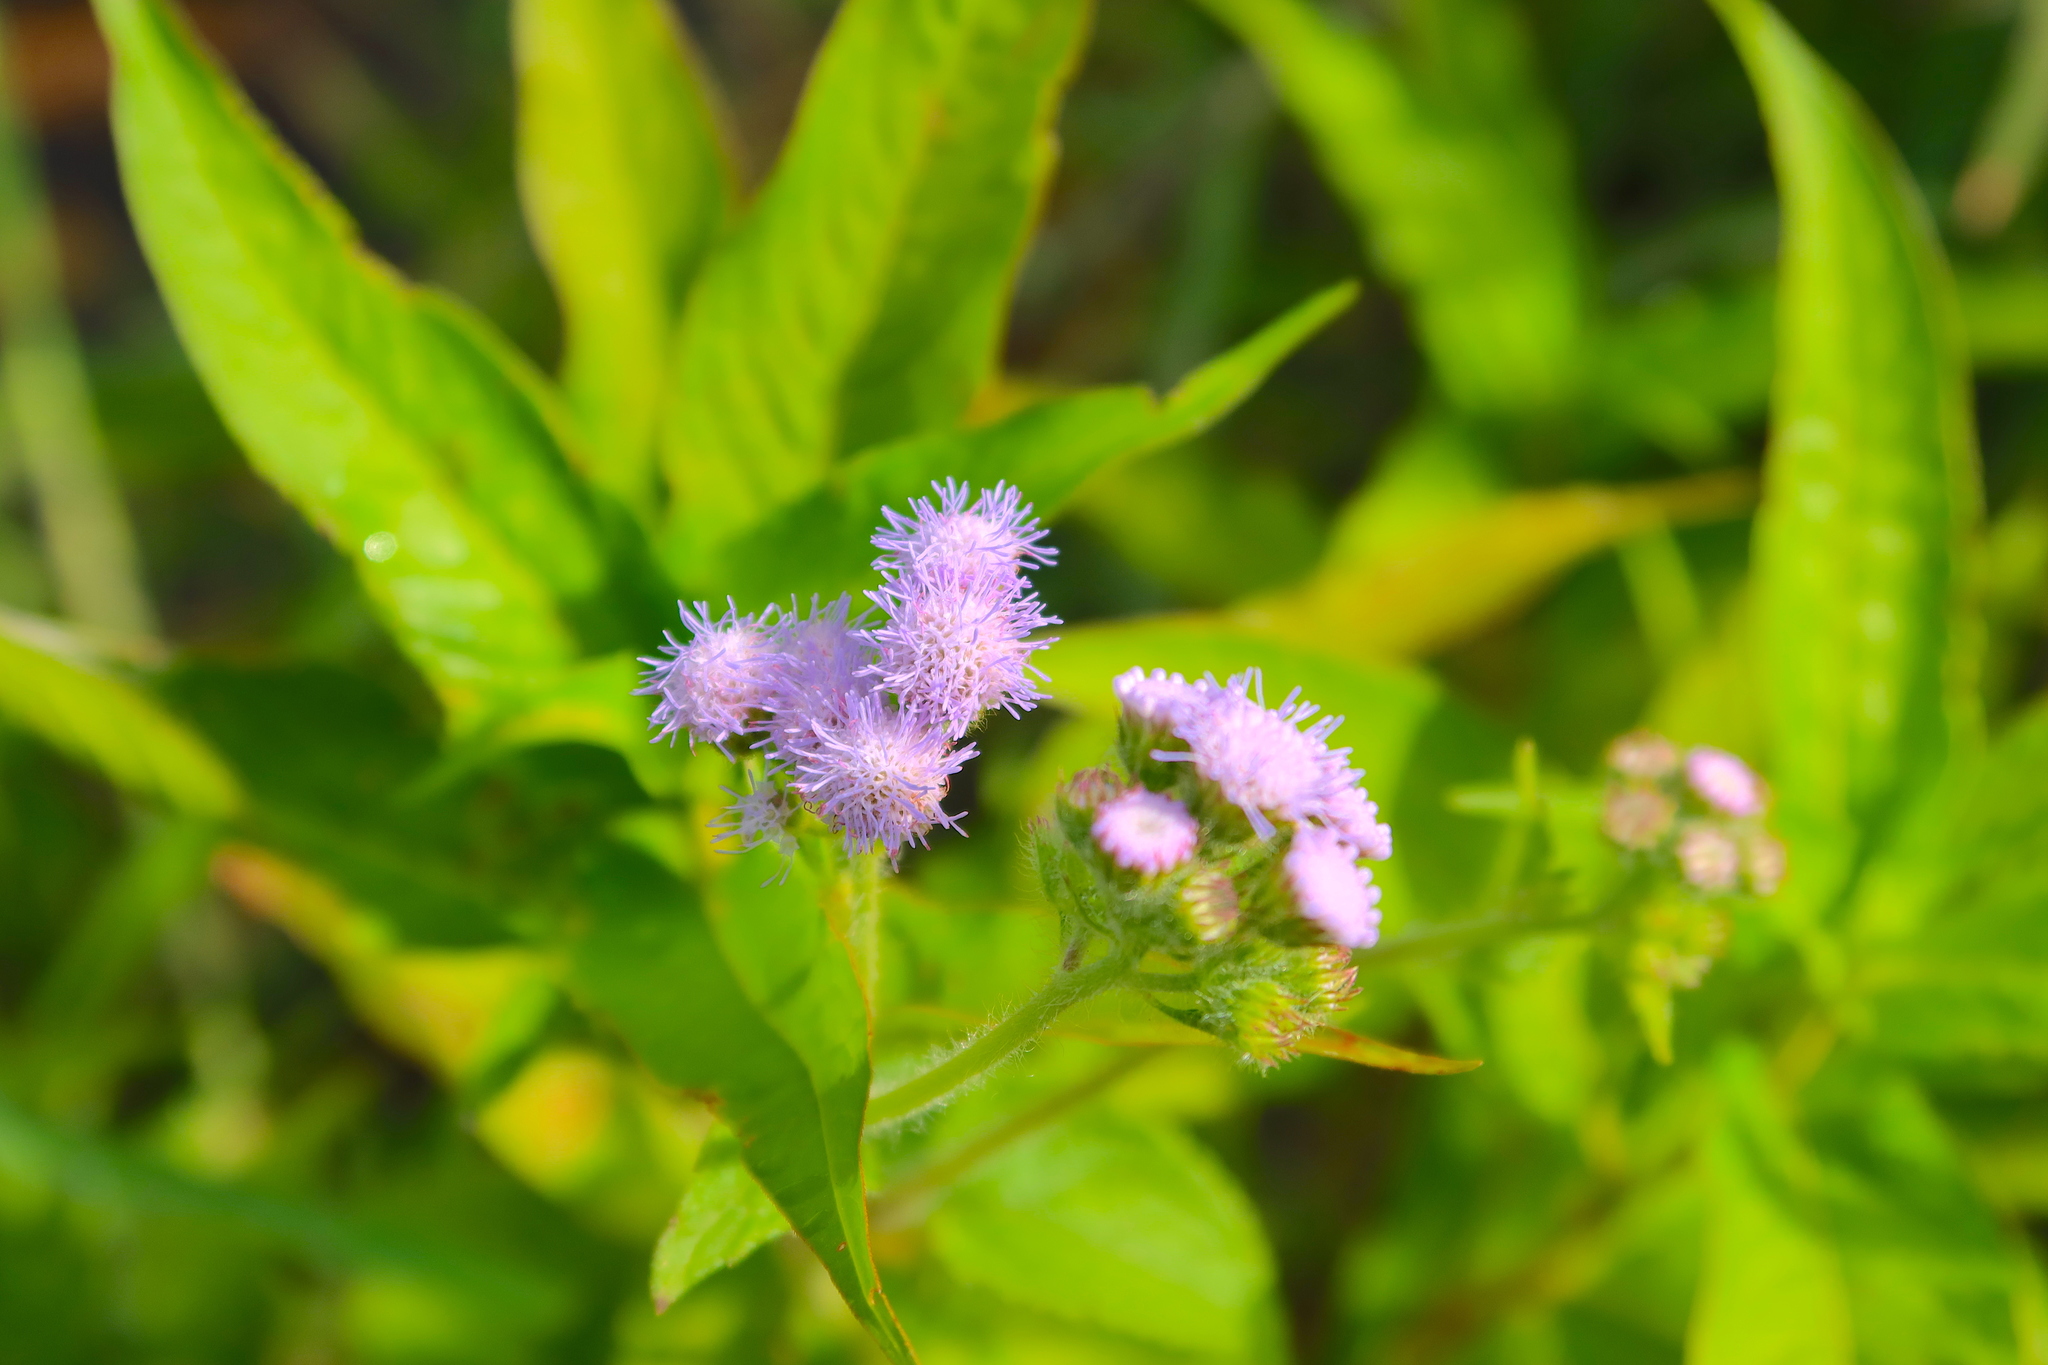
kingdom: Plantae
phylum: Tracheophyta
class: Magnoliopsida
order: Asterales
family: Asteraceae
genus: Ageratum
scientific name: Ageratum houstonianum
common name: Bluemink
